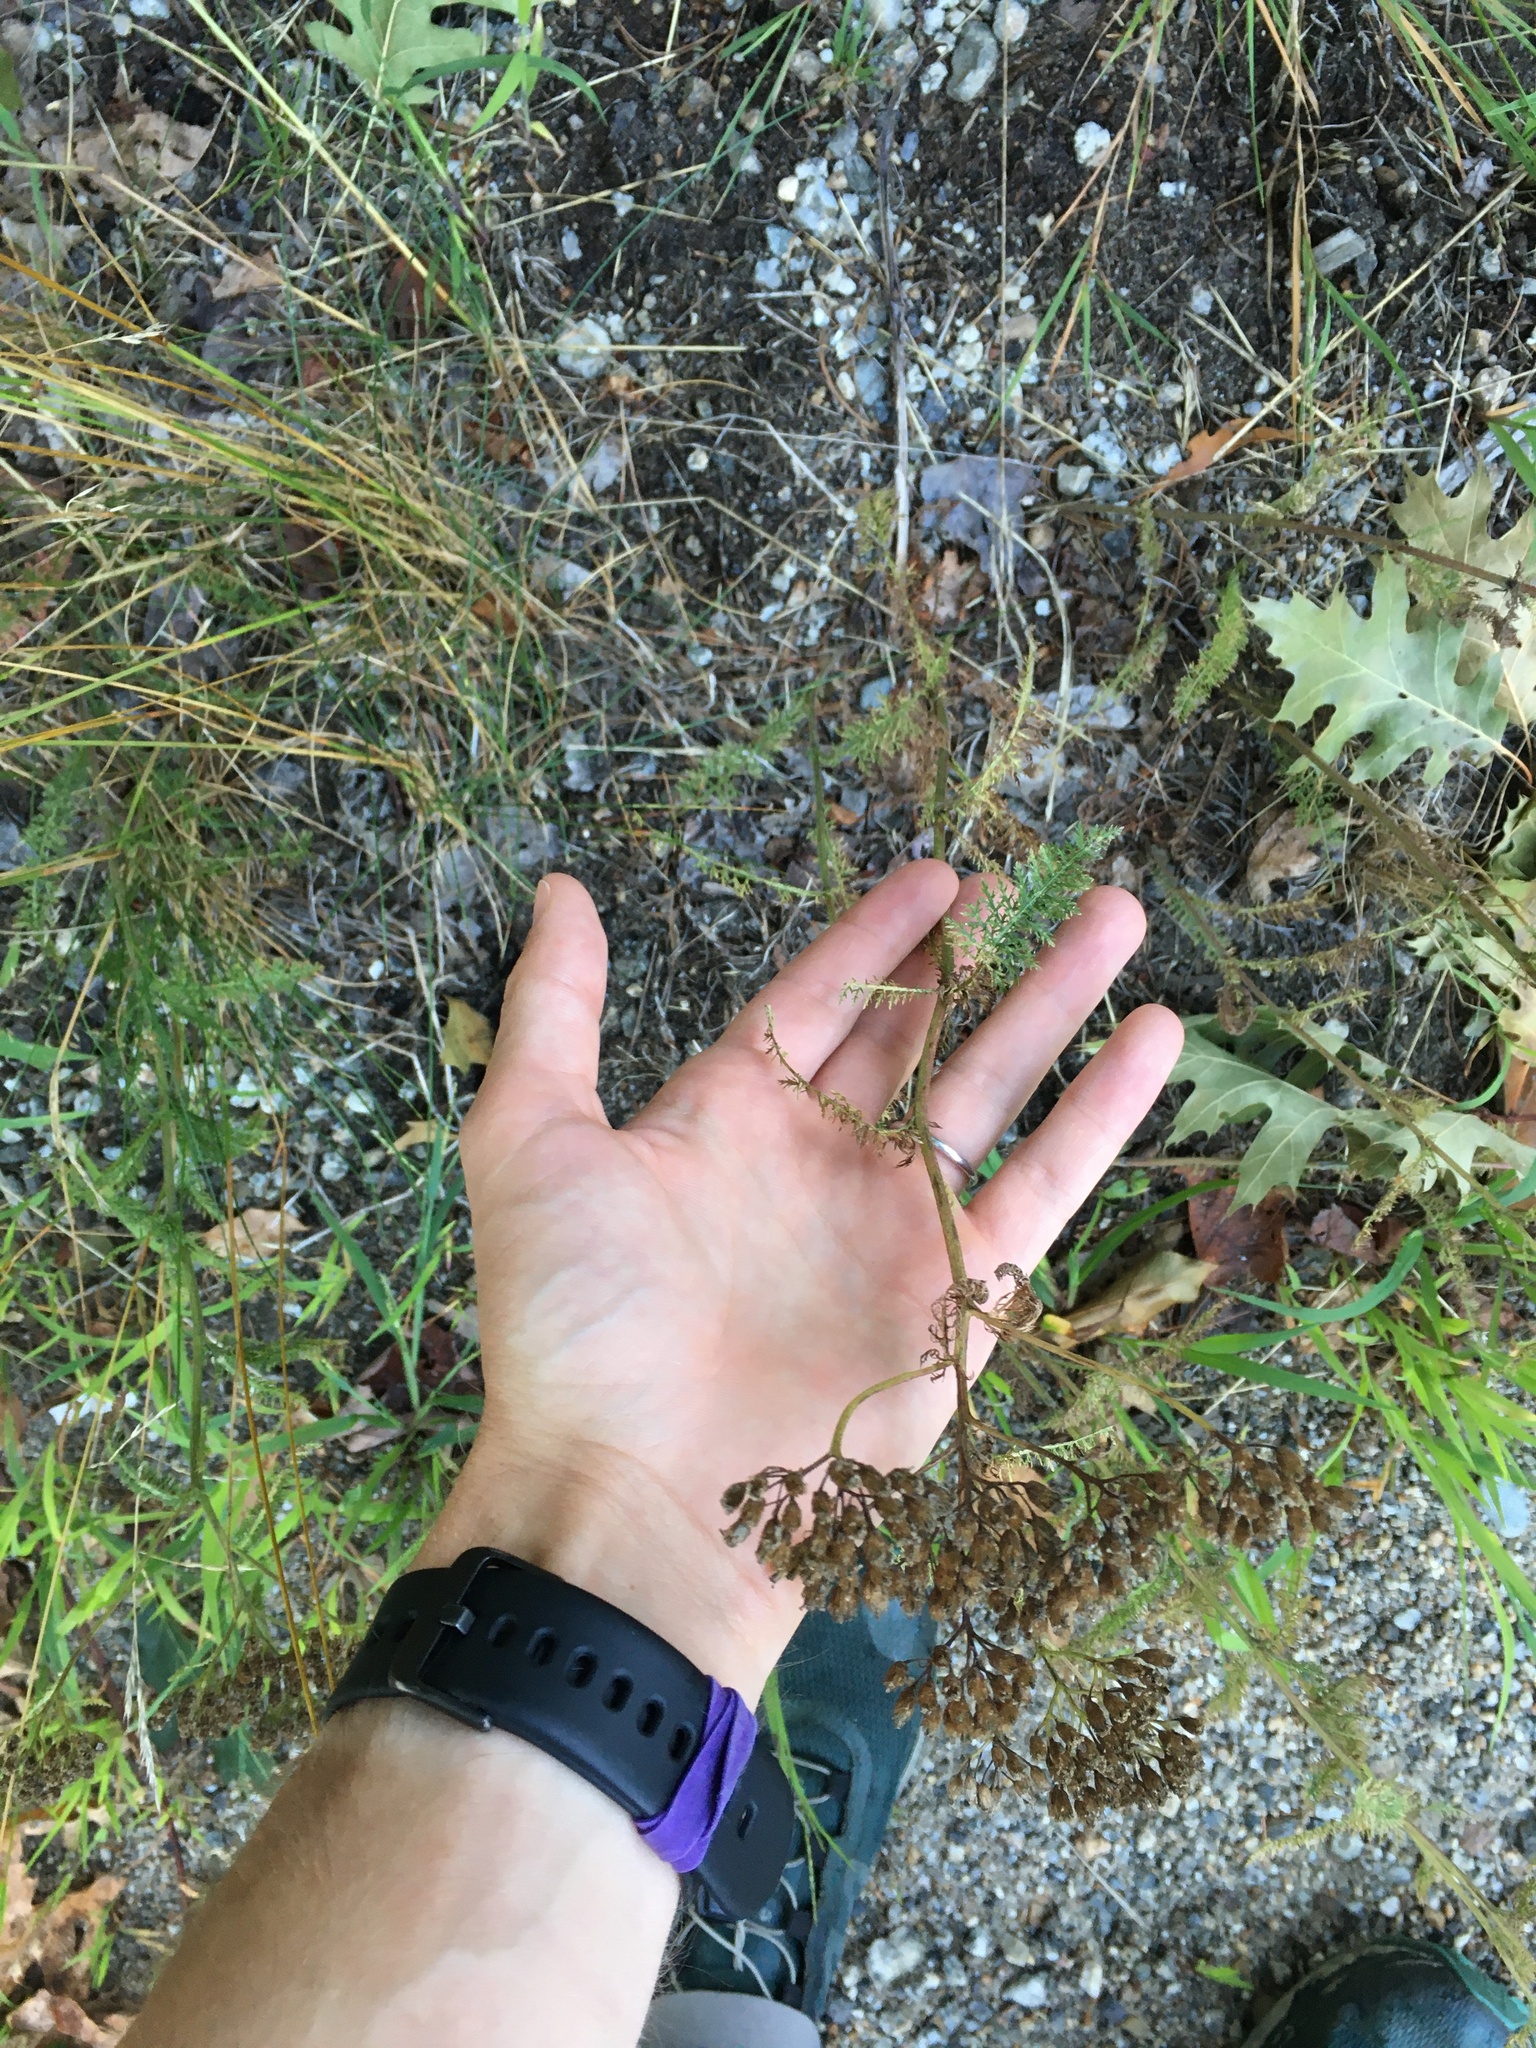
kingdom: Plantae
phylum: Tracheophyta
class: Magnoliopsida
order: Asterales
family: Asteraceae
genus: Achillea
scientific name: Achillea millefolium
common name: Yarrow
